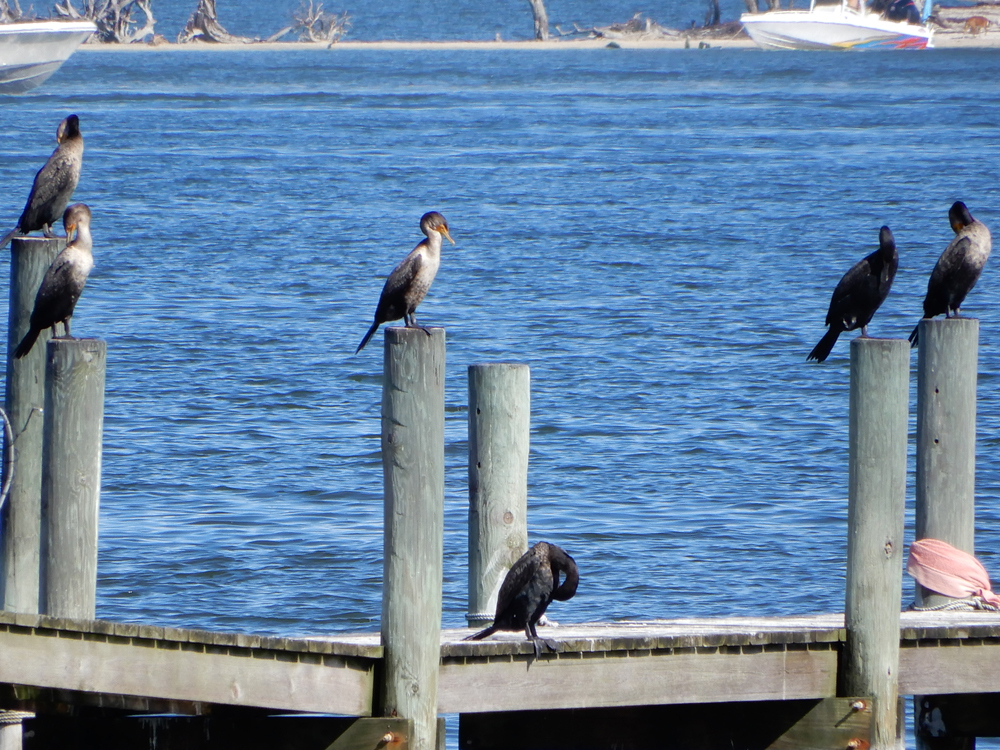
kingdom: Animalia
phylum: Chordata
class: Aves
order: Suliformes
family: Phalacrocoracidae
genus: Phalacrocorax
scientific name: Phalacrocorax auritus
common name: Double-crested cormorant
